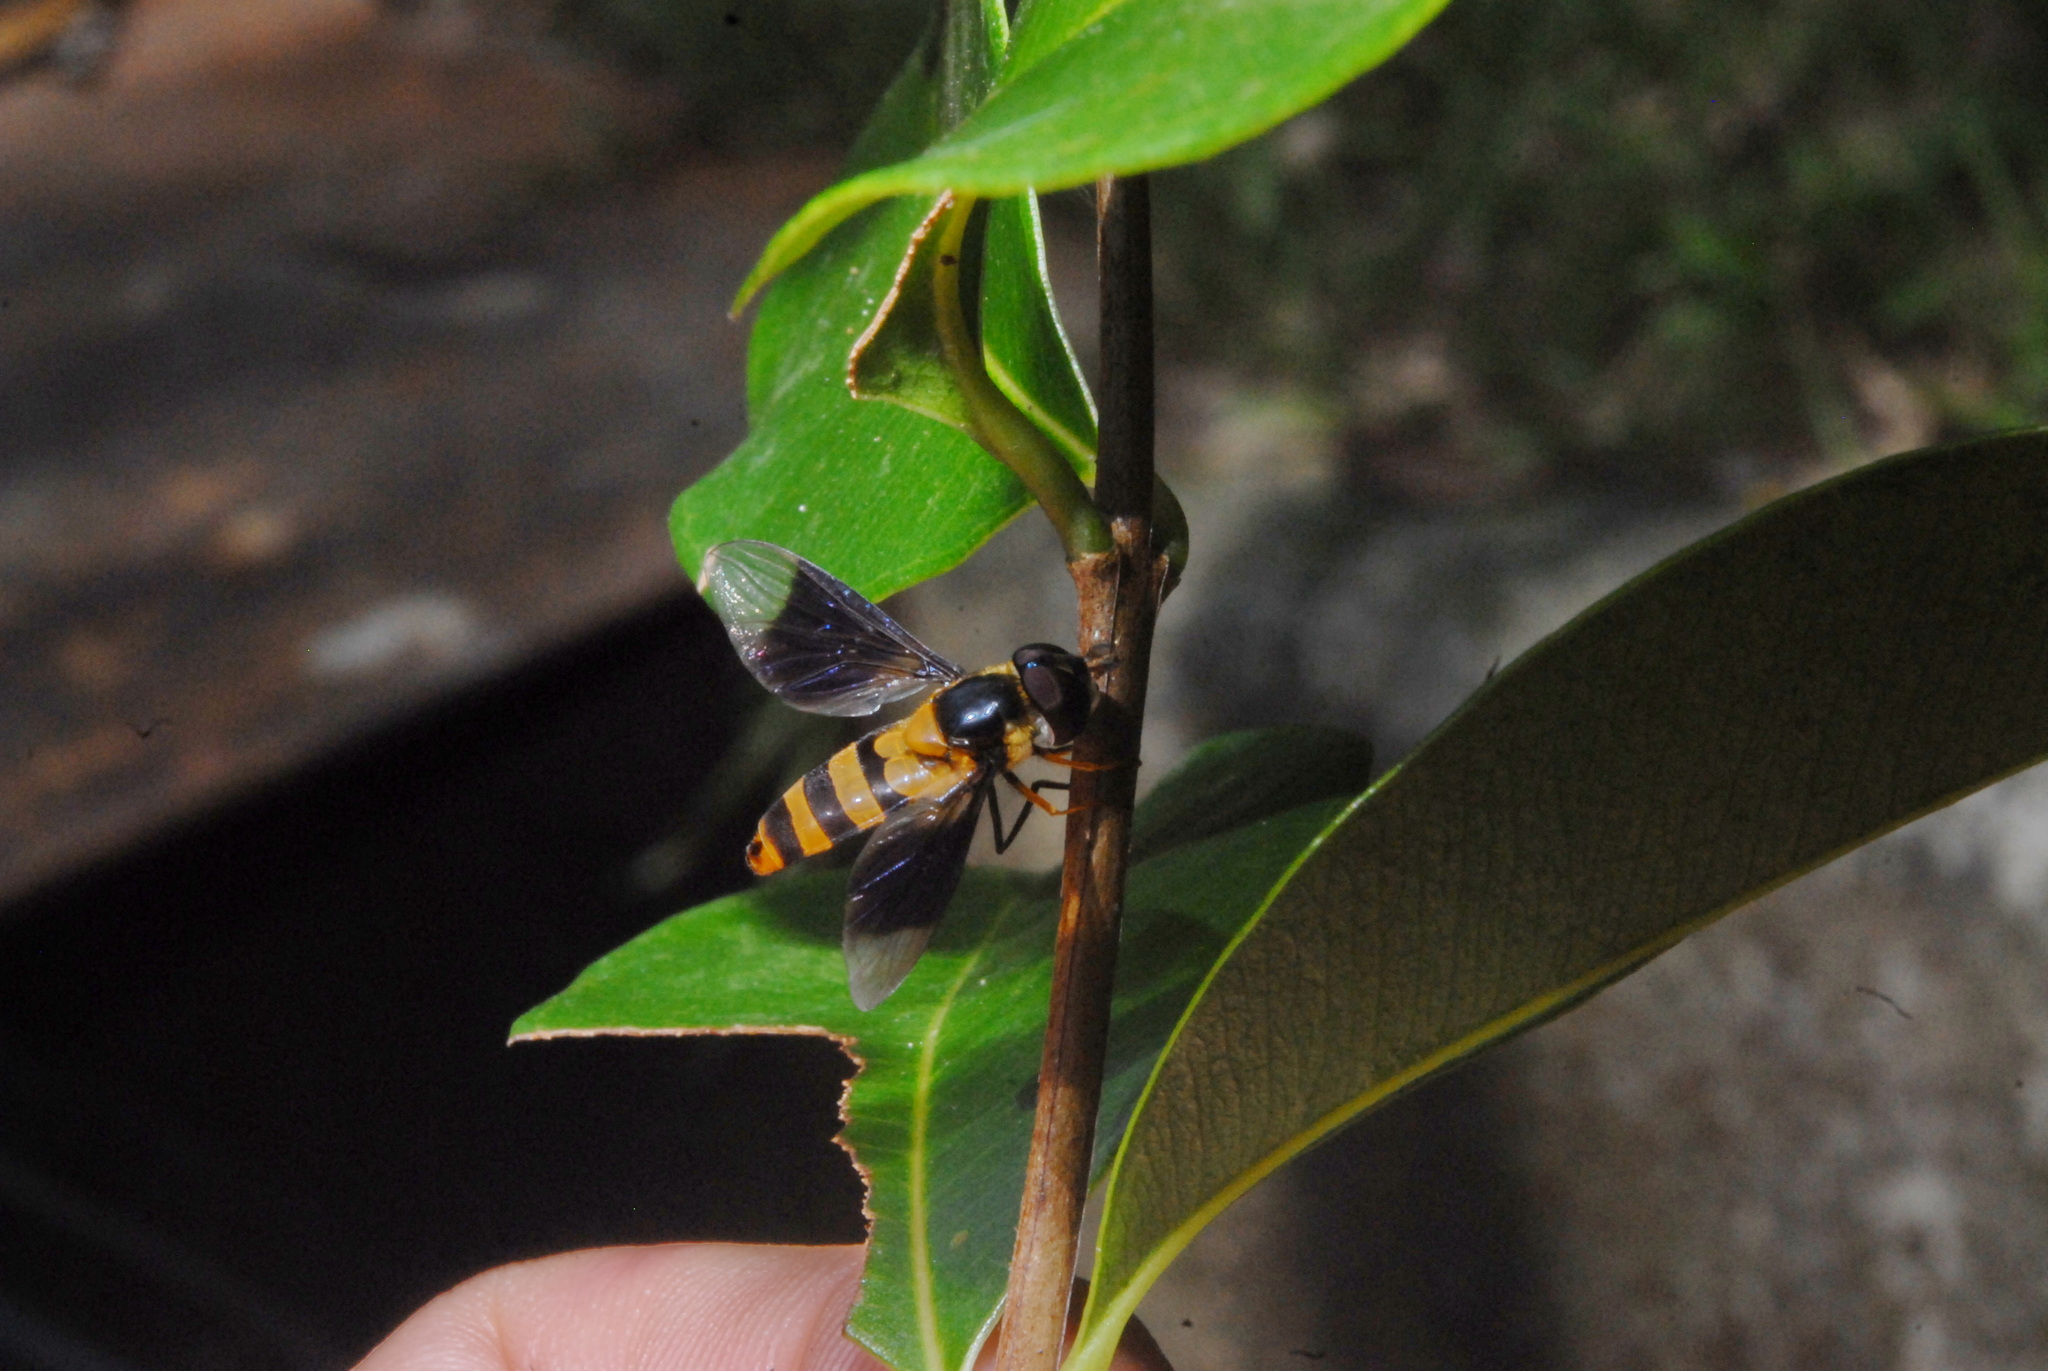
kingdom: Animalia
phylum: Arthropoda
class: Insecta
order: Diptera
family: Syrphidae
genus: Dideopsis
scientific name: Dideopsis aegrota
